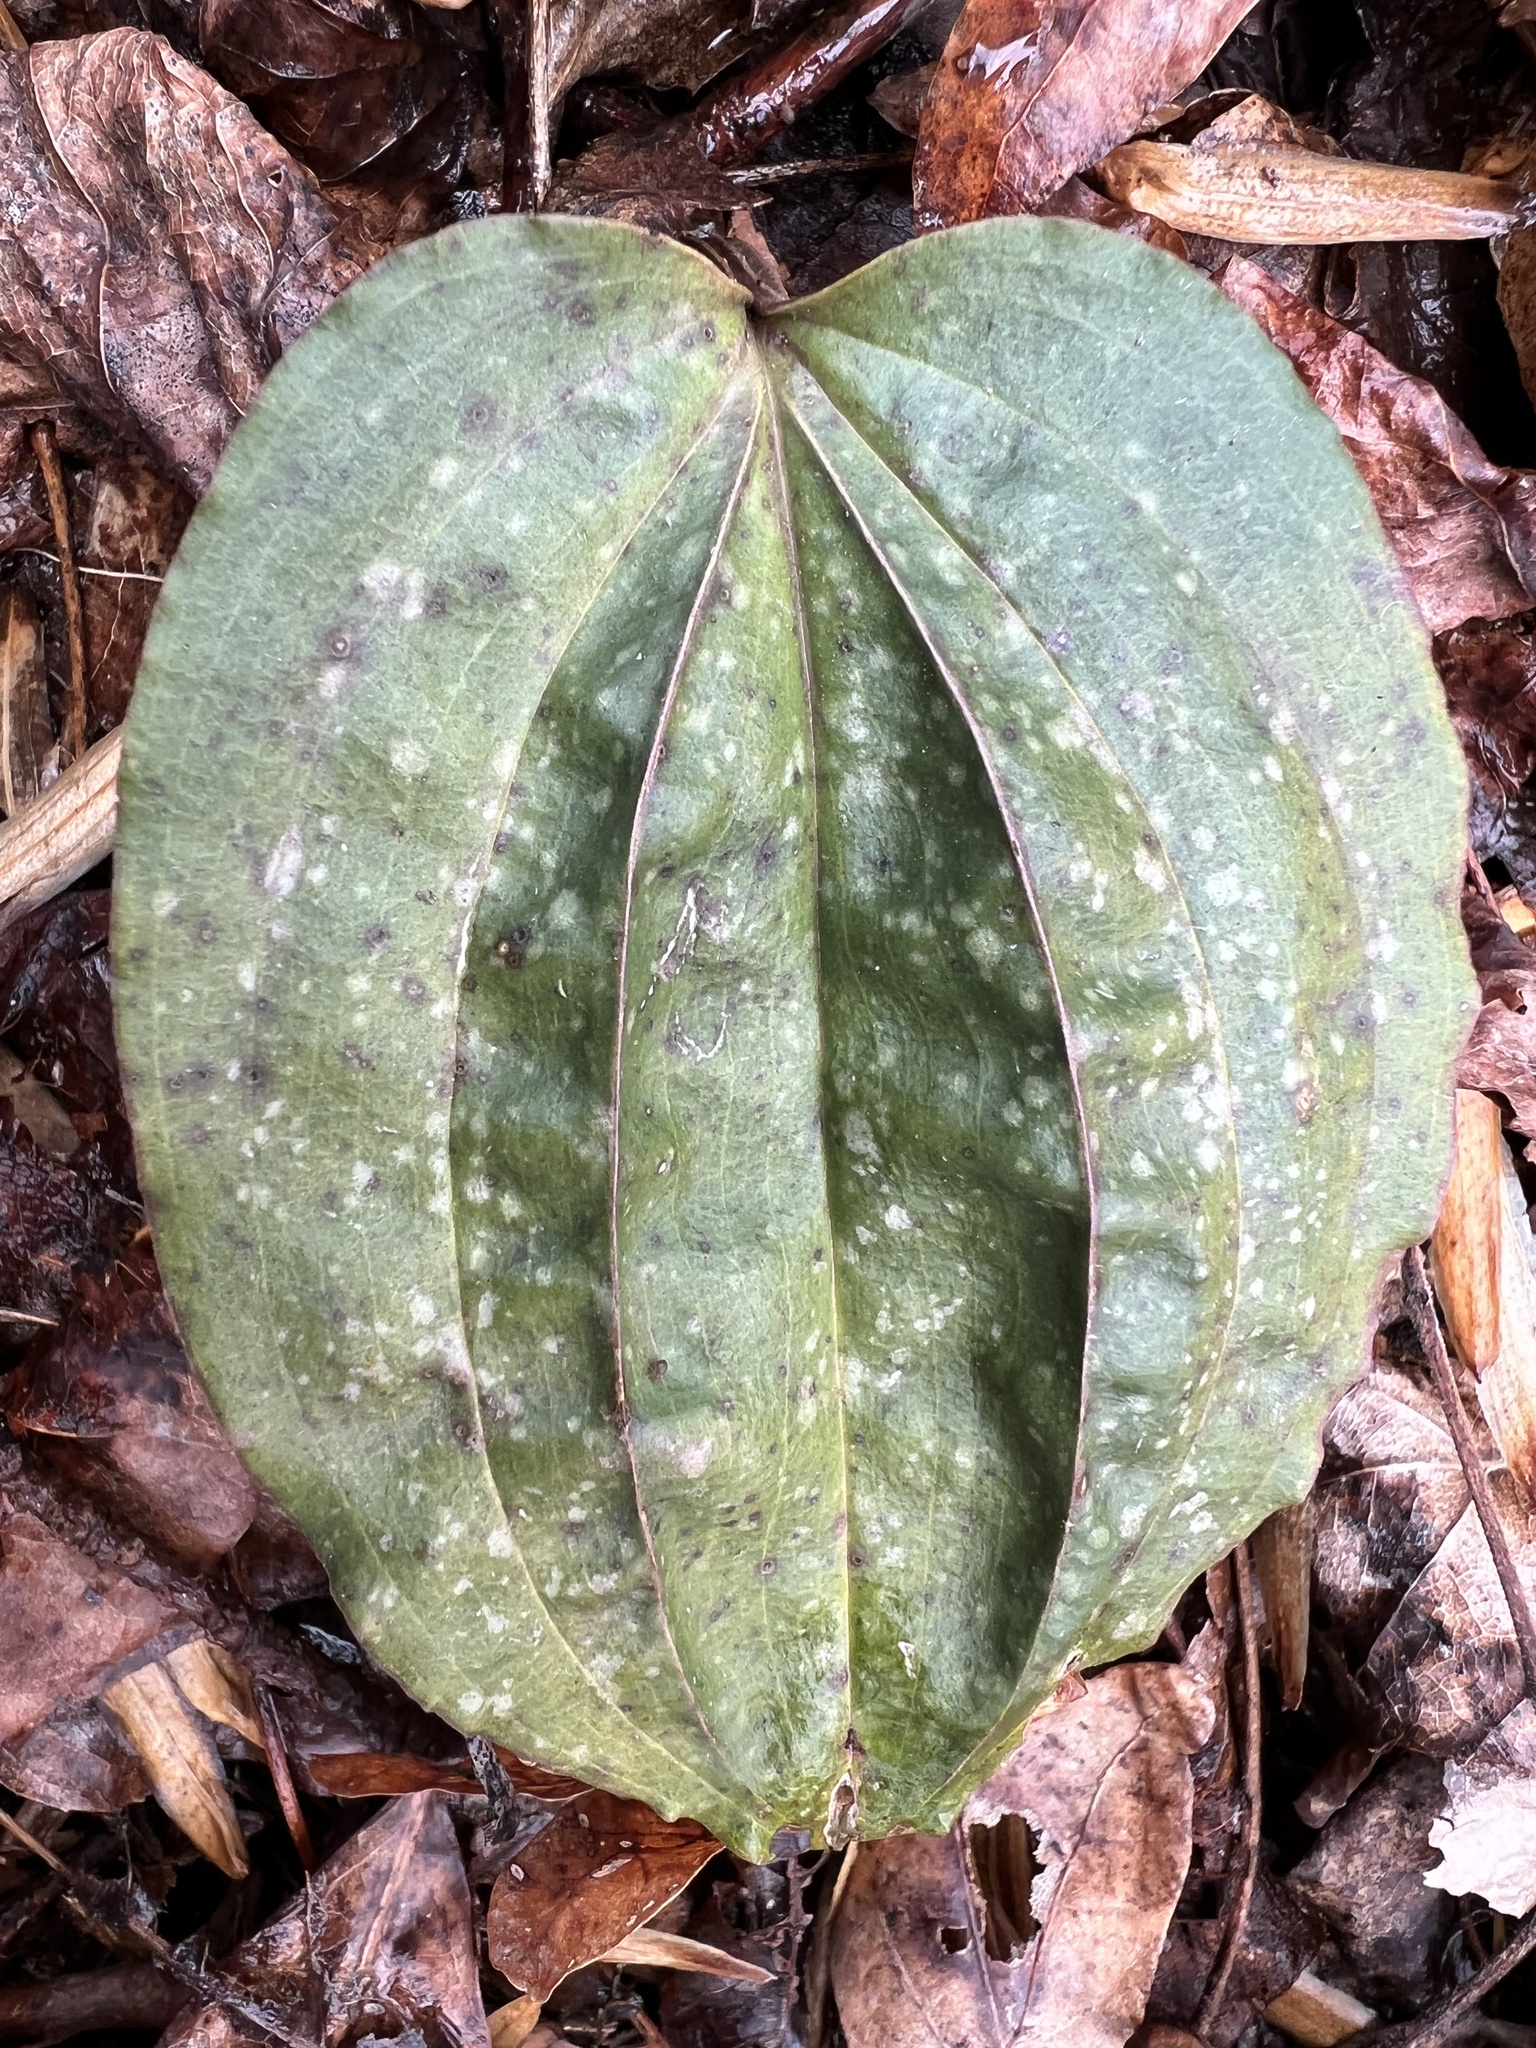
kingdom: Plantae
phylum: Tracheophyta
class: Liliopsida
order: Asparagales
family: Orchidaceae
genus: Tipularia
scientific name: Tipularia discolor
